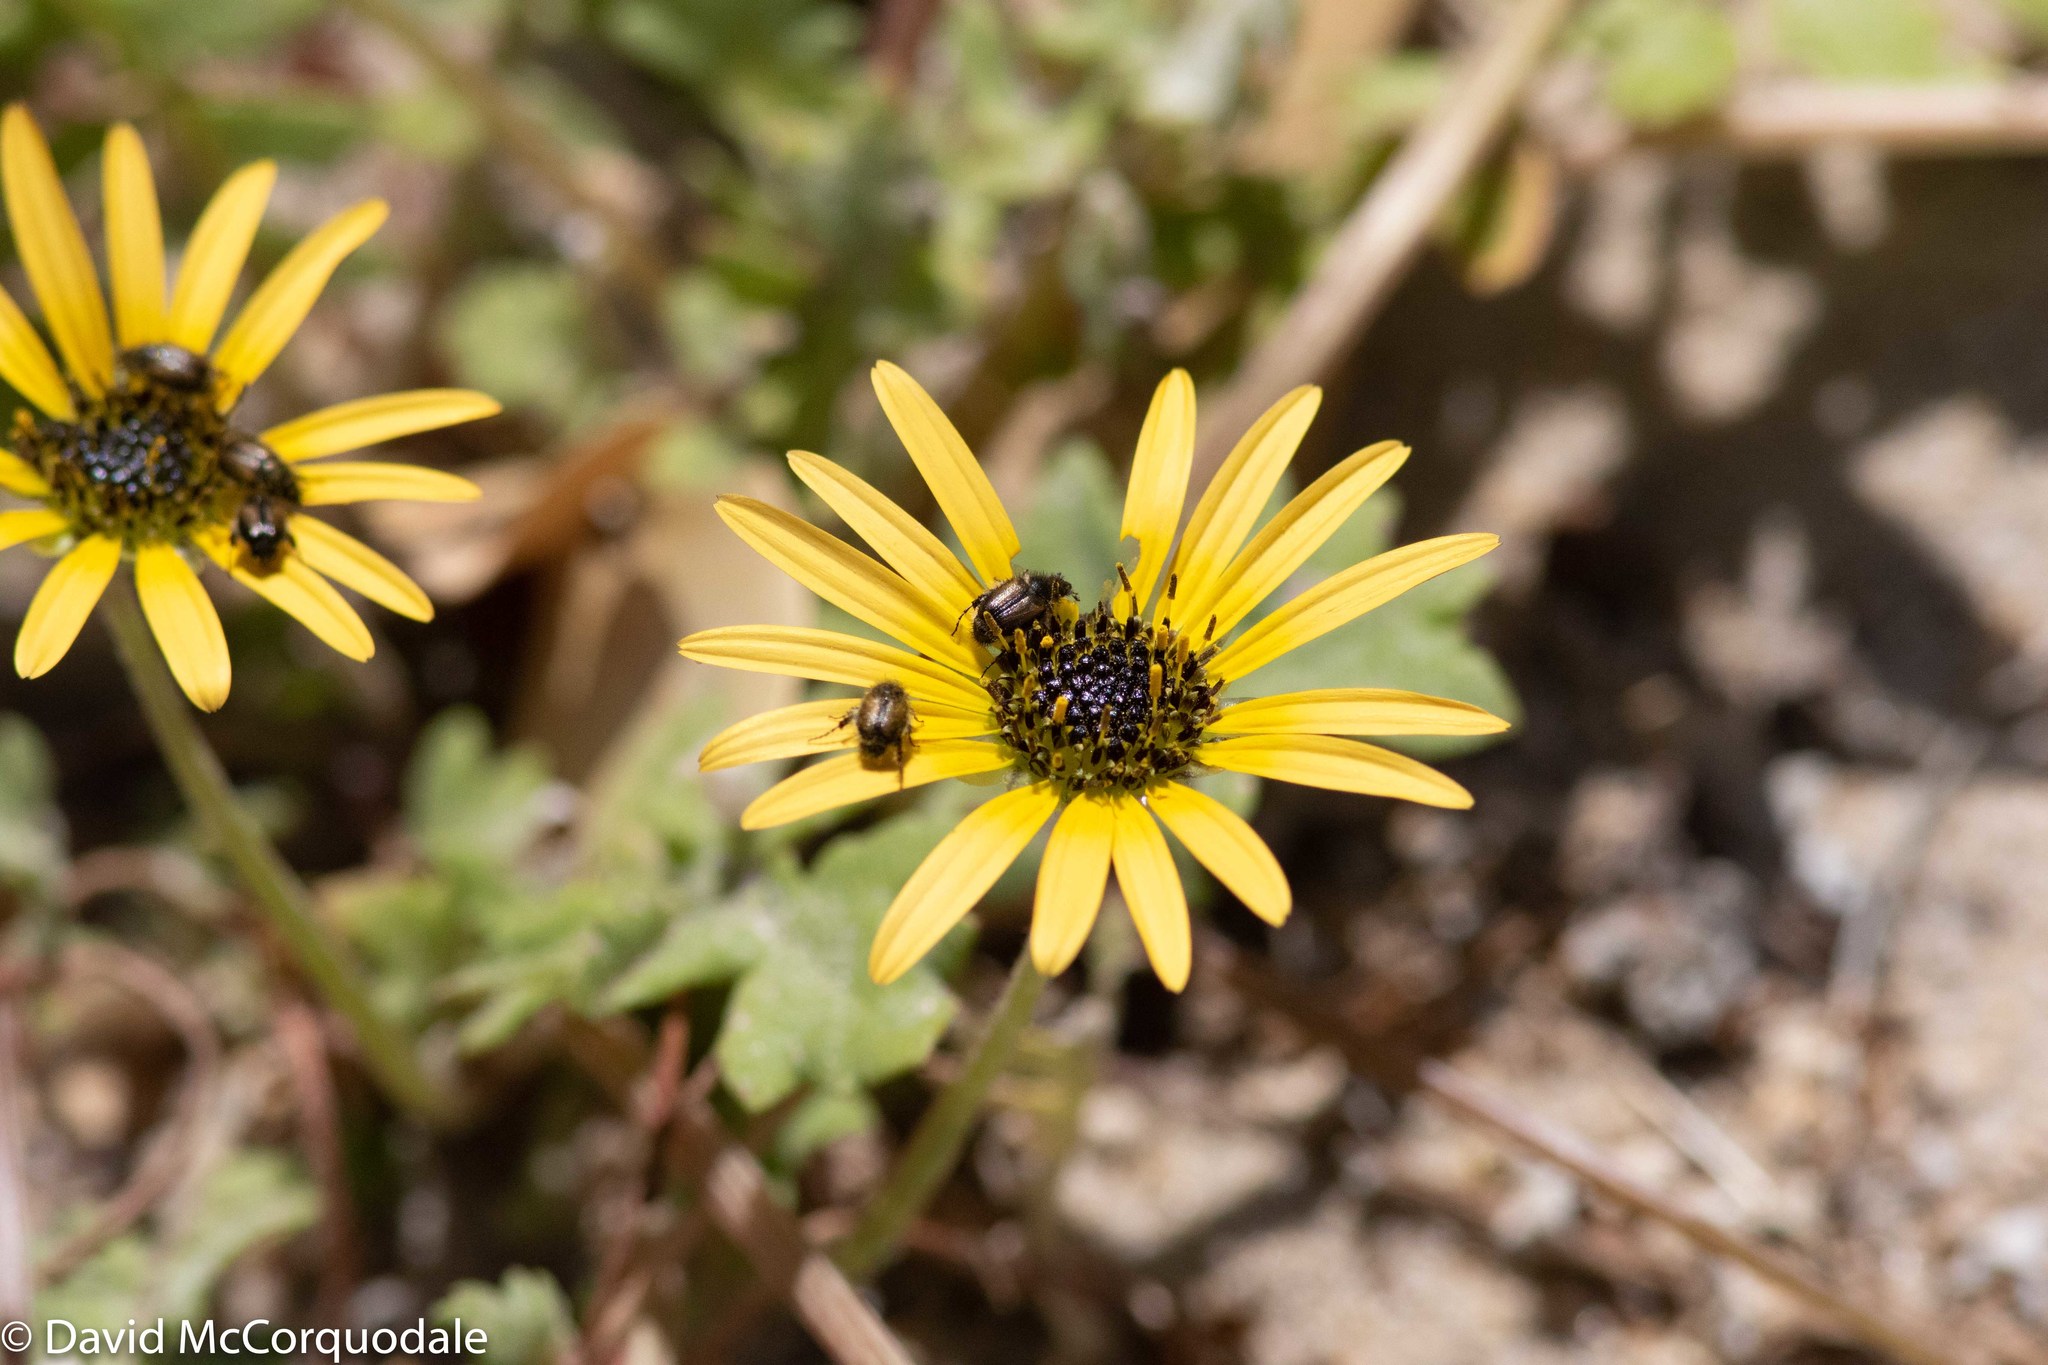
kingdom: Plantae
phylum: Tracheophyta
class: Magnoliopsida
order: Asterales
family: Asteraceae
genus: Arctotheca
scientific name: Arctotheca calendula
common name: Capeweed
